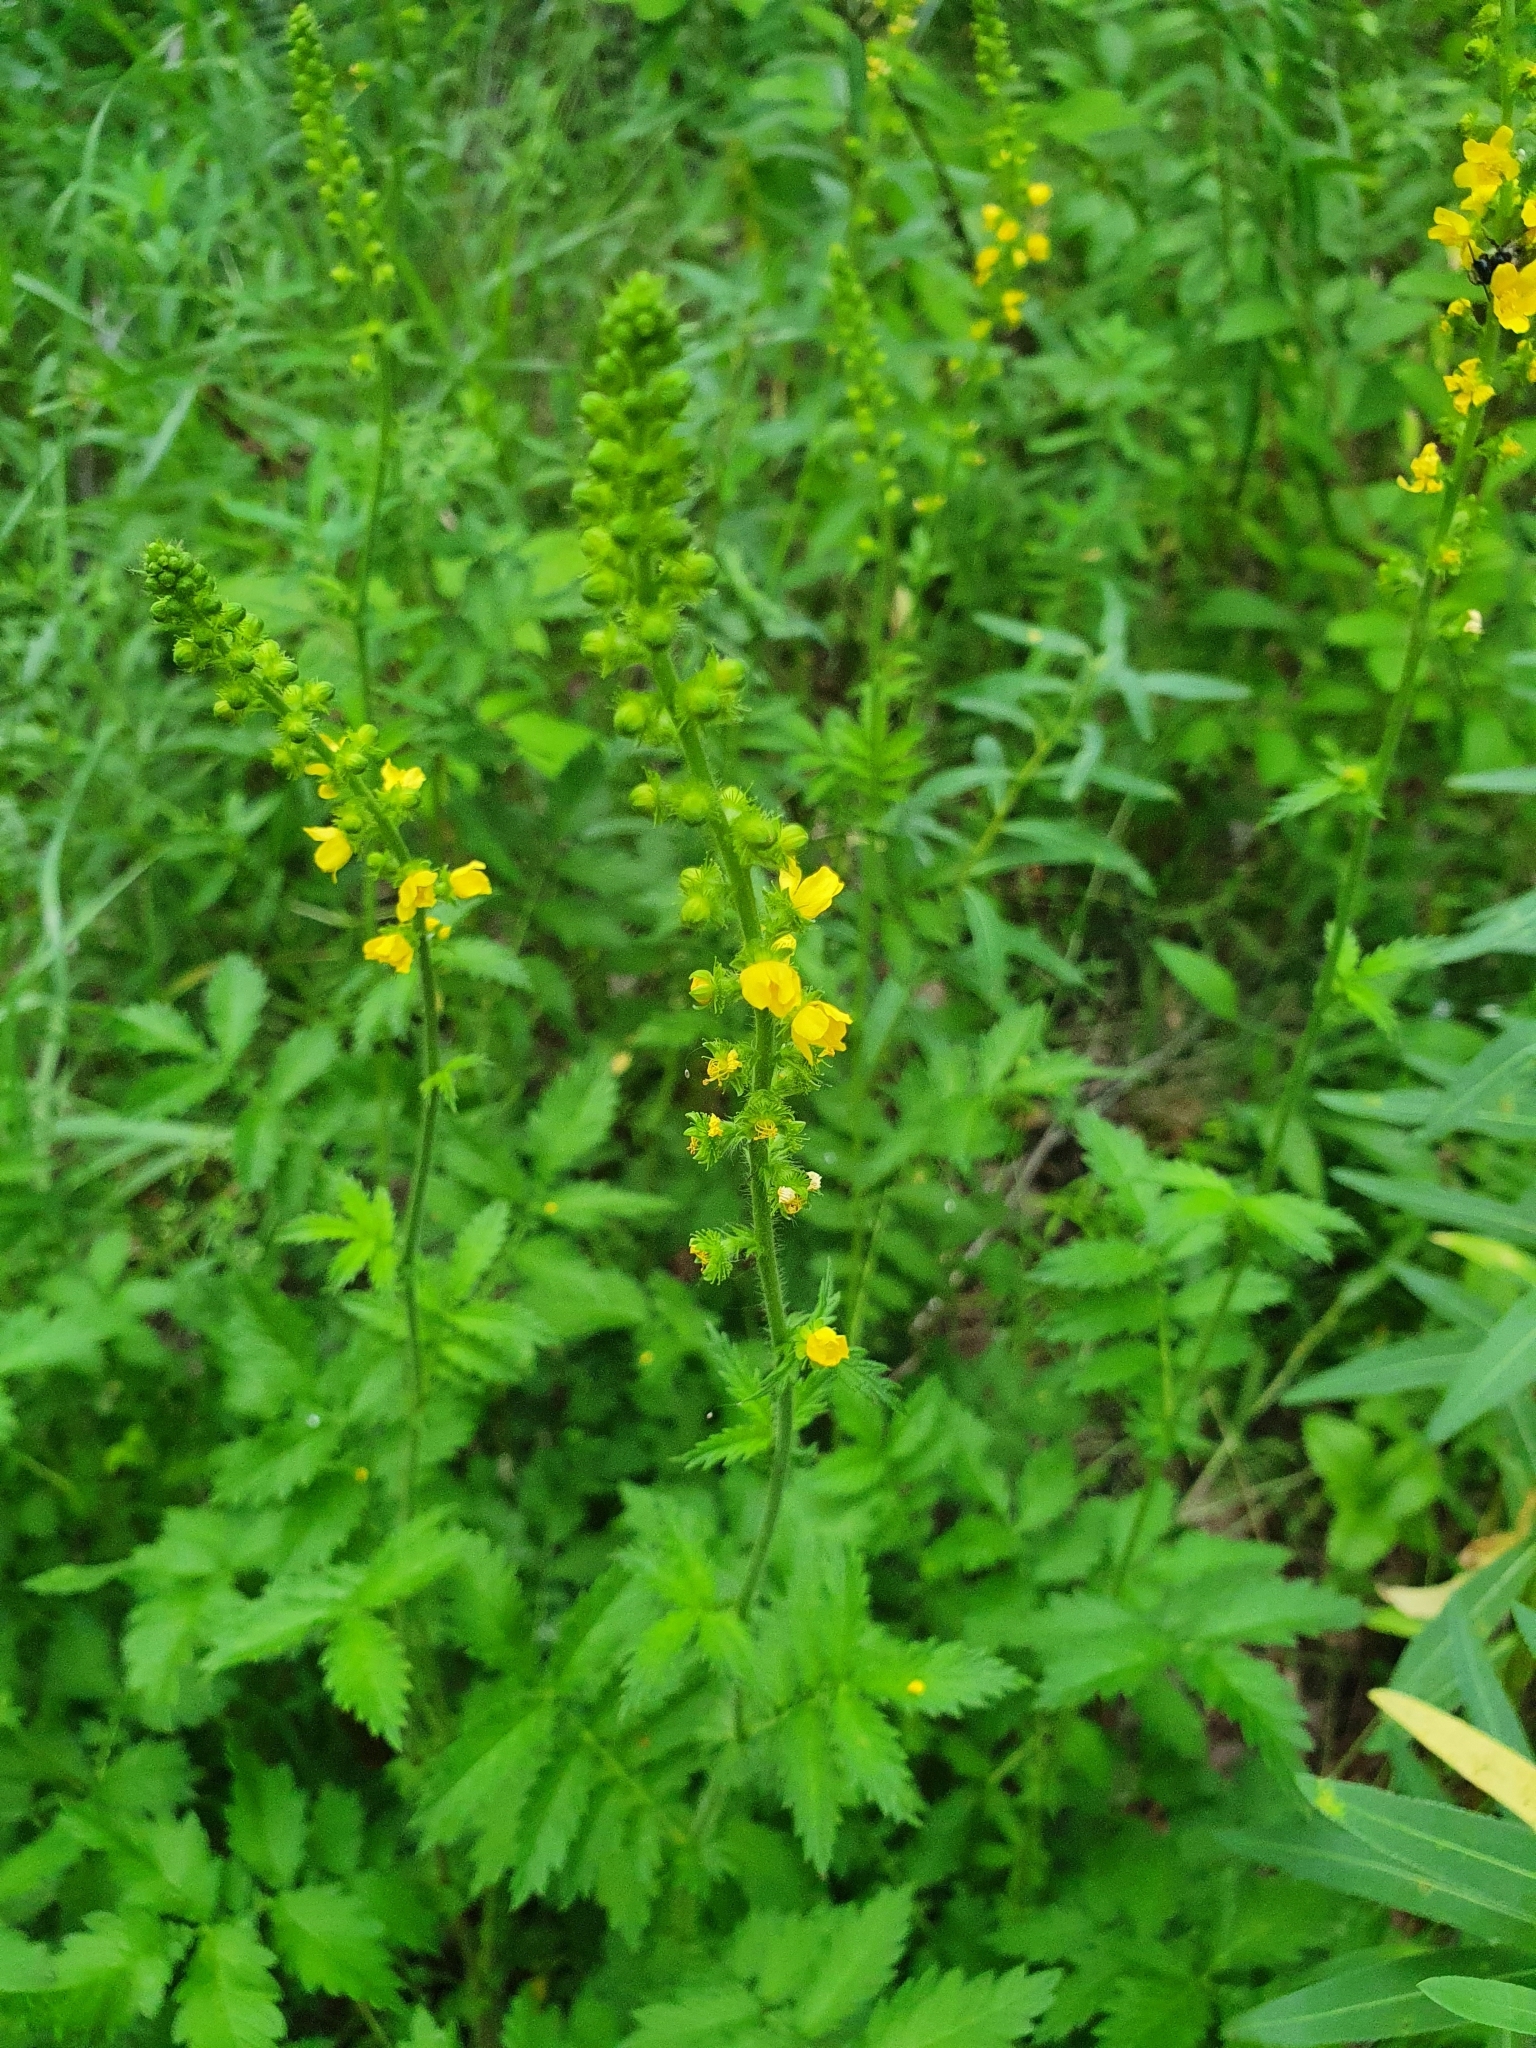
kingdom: Plantae
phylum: Tracheophyta
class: Magnoliopsida
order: Rosales
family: Rosaceae
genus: Agrimonia
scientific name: Agrimonia eupatoria
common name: Agrimony
